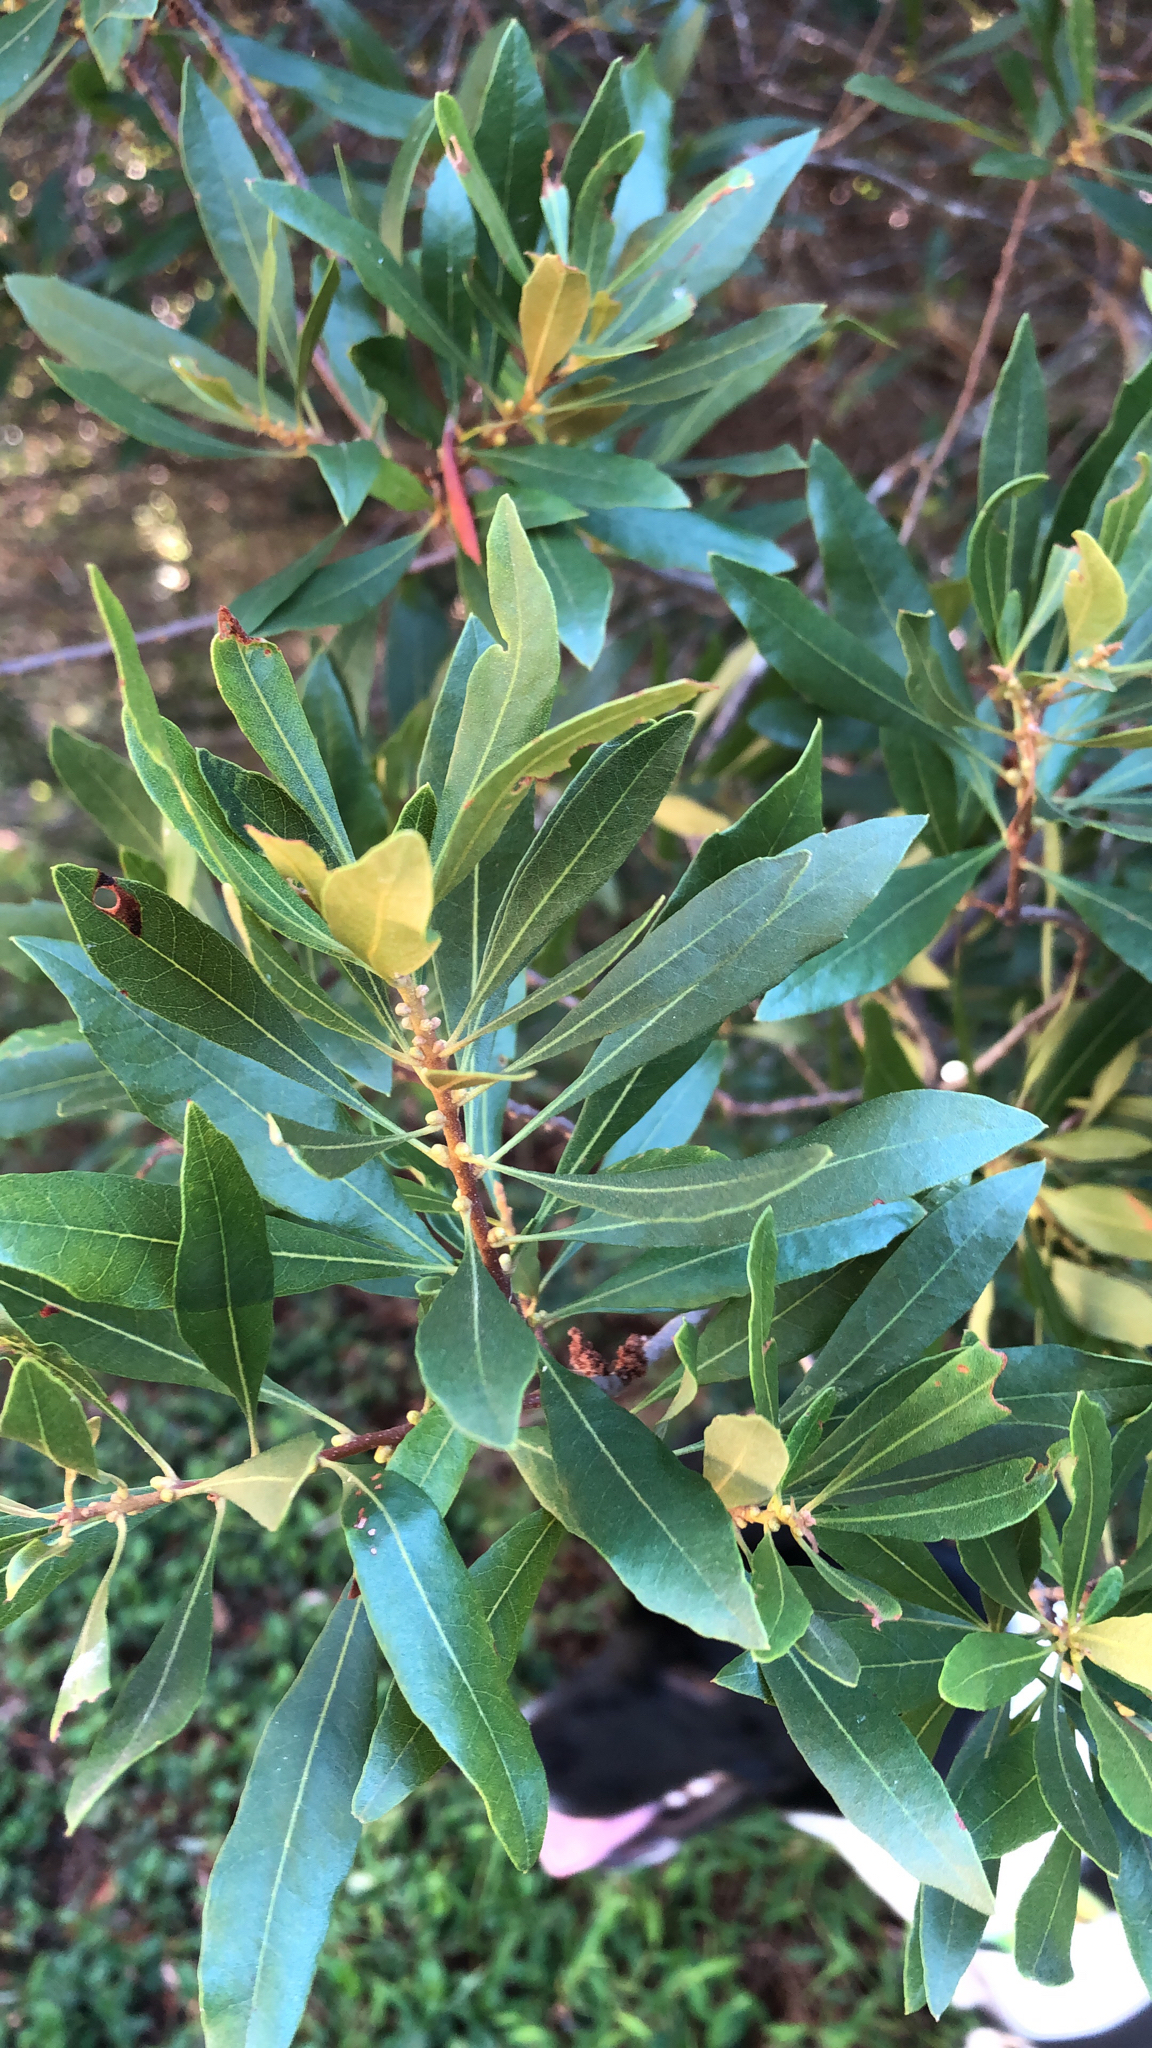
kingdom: Plantae
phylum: Tracheophyta
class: Magnoliopsida
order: Fagales
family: Myricaceae
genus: Morella
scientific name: Morella cerifera
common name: Wax myrtle
